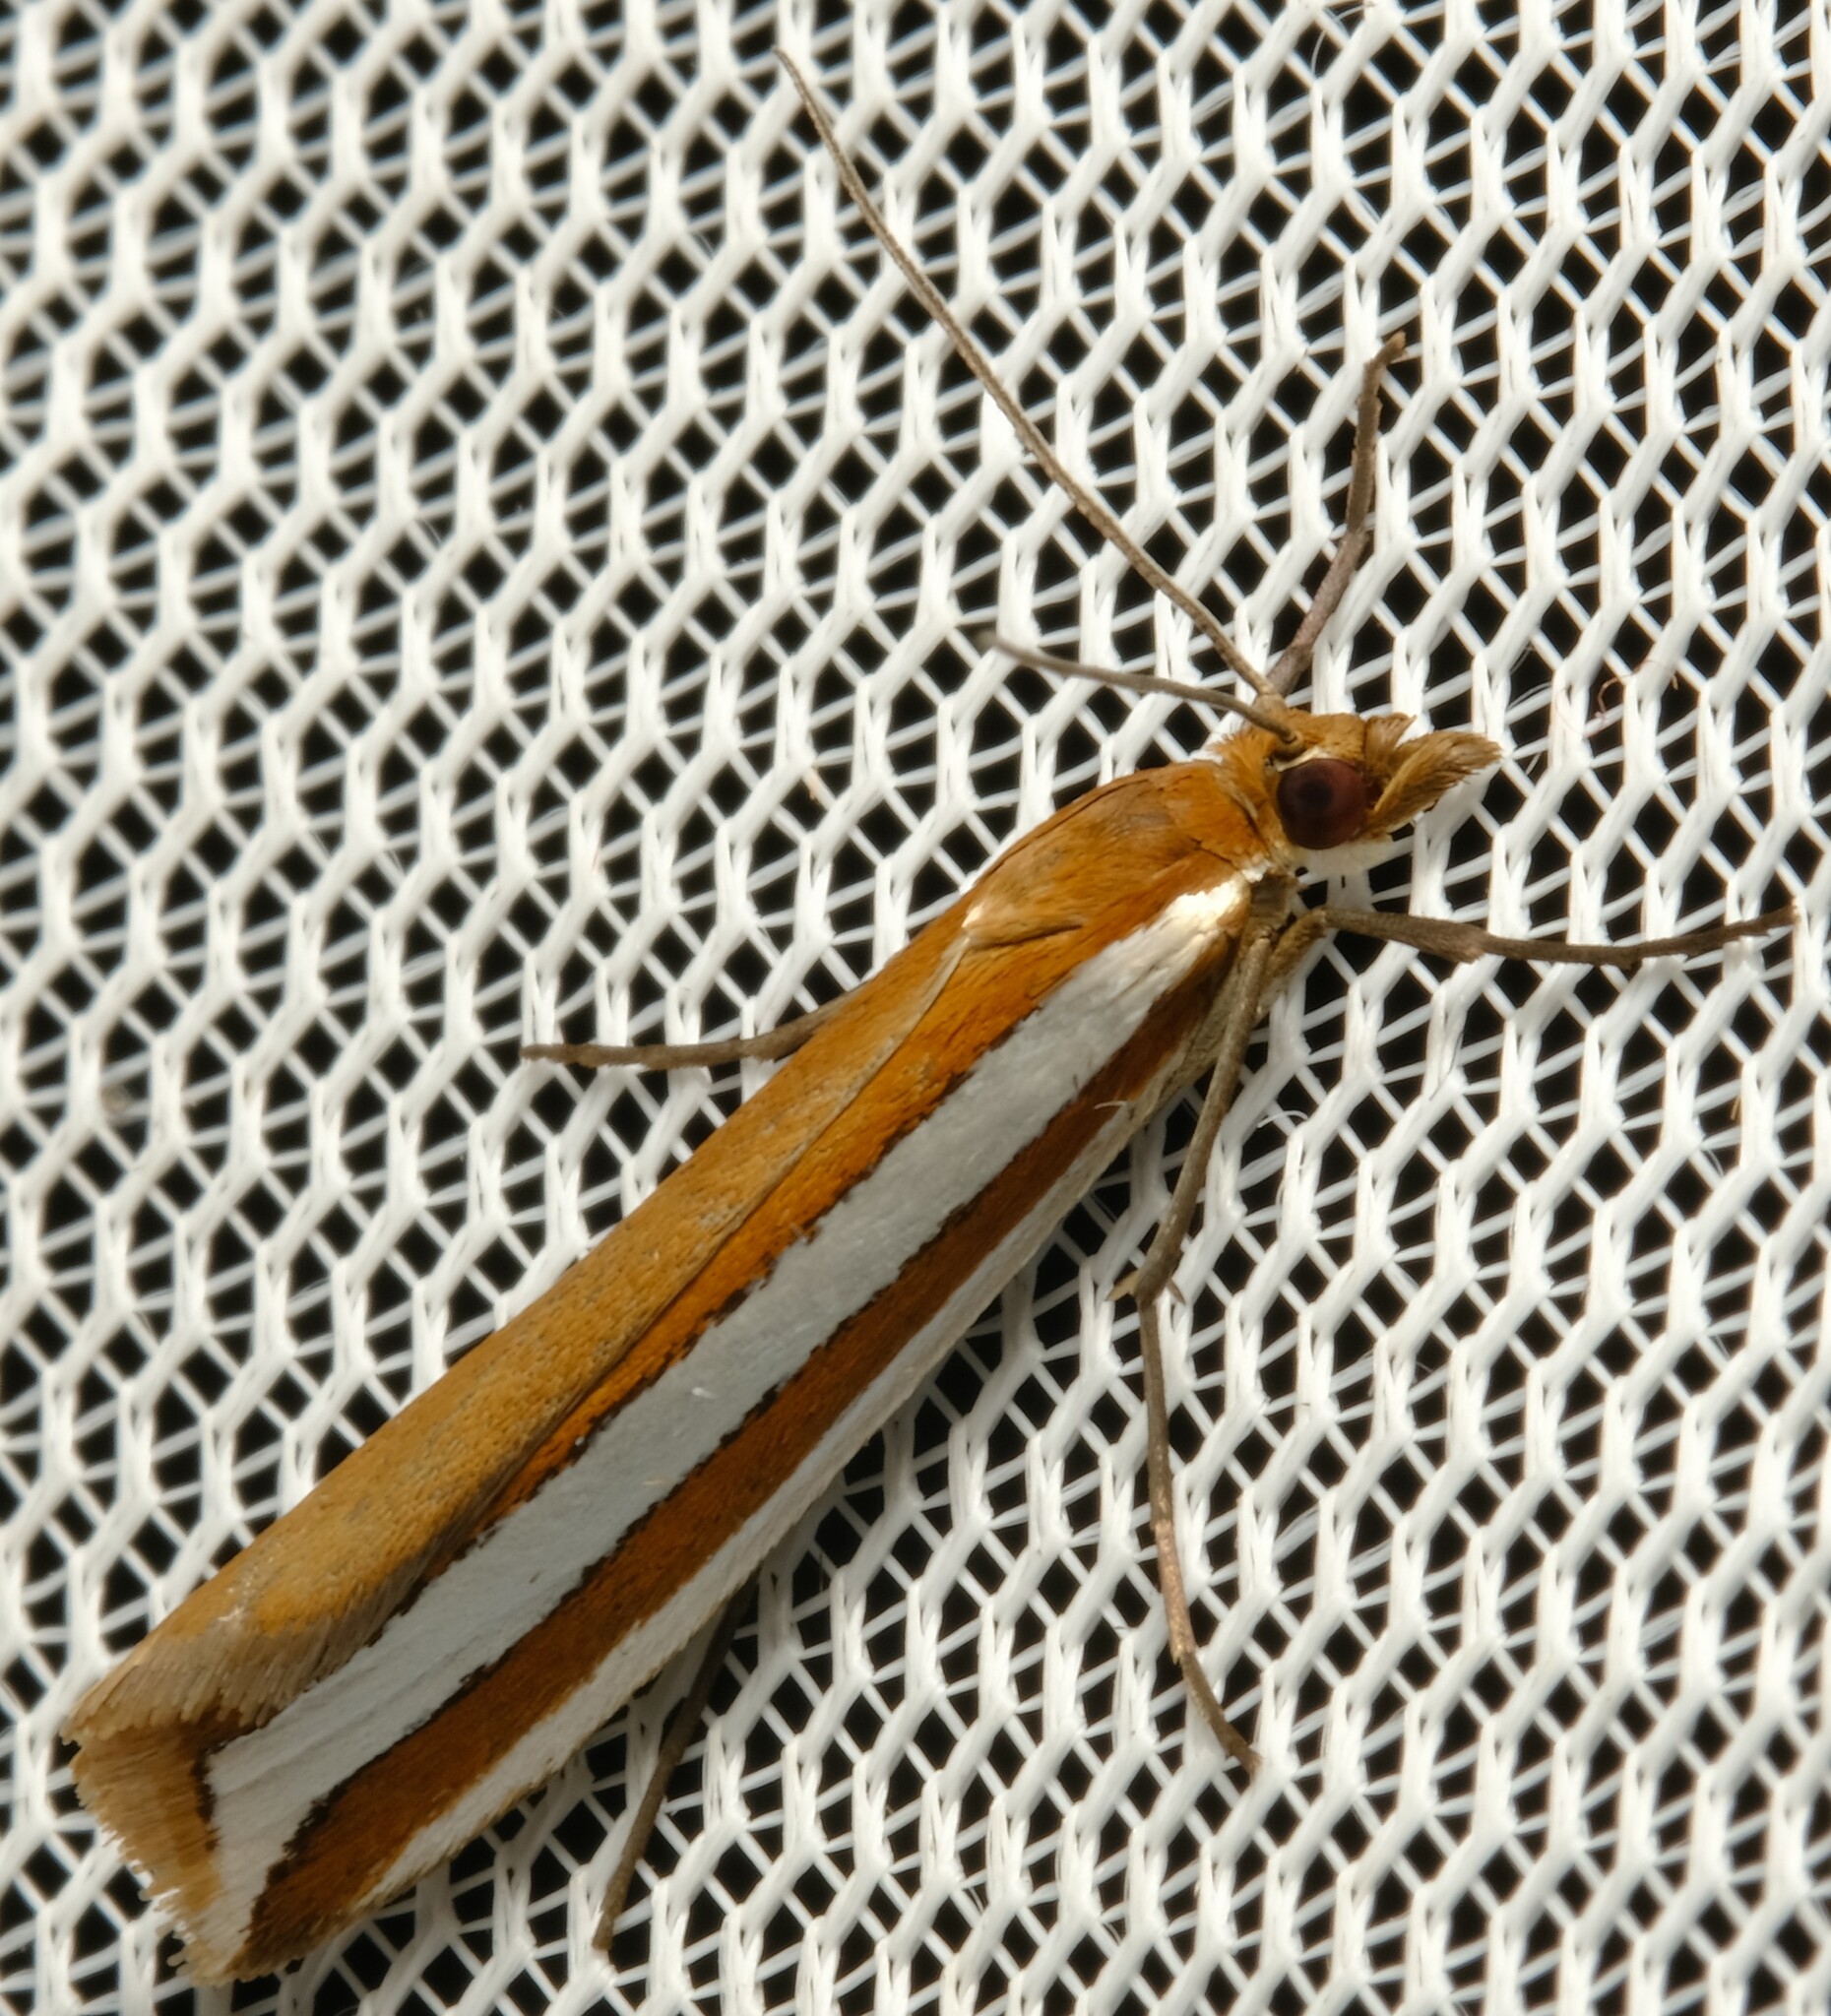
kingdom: Animalia
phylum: Arthropoda
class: Insecta
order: Lepidoptera
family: Crambidae
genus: Corynophora
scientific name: Corynophora lativittalis
